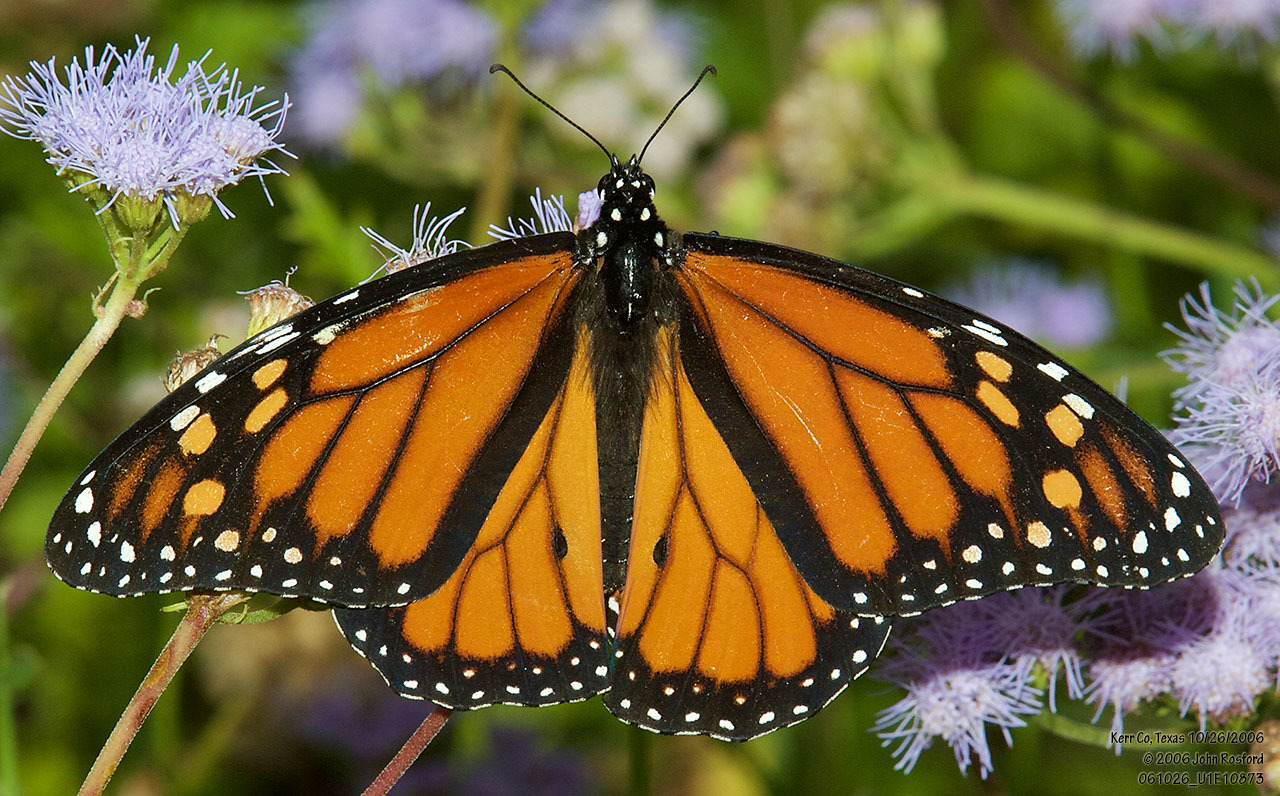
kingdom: Animalia
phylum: Arthropoda
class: Insecta
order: Lepidoptera
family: Nymphalidae
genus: Danaus
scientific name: Danaus plexippus
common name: Monarch
